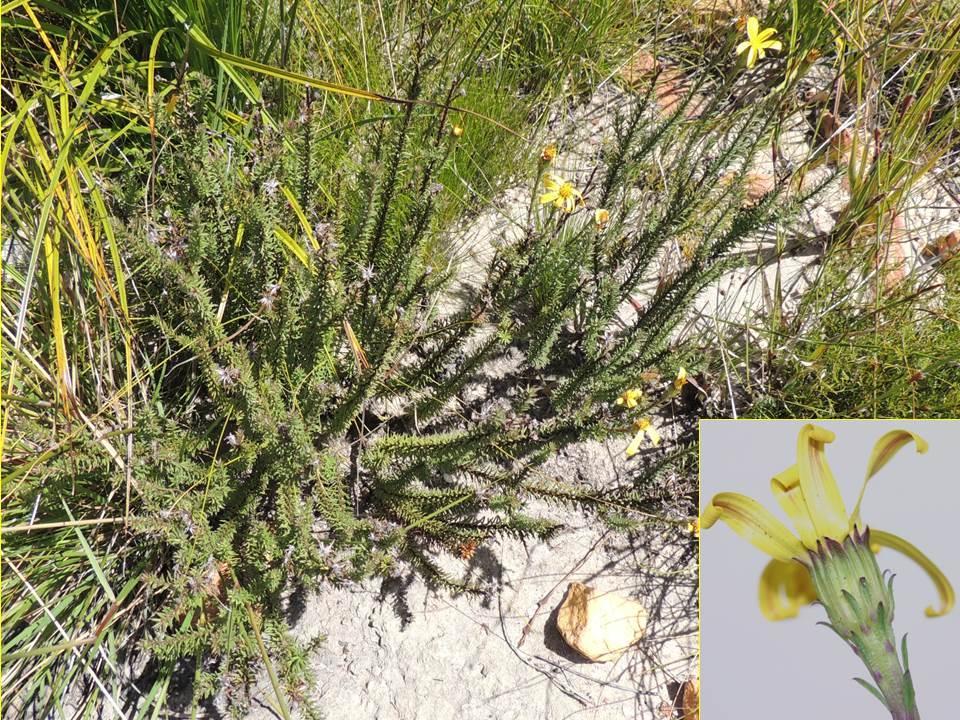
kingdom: Plantae
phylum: Tracheophyta
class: Magnoliopsida
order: Asterales
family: Asteraceae
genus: Senecio
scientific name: Senecio pinifolius
